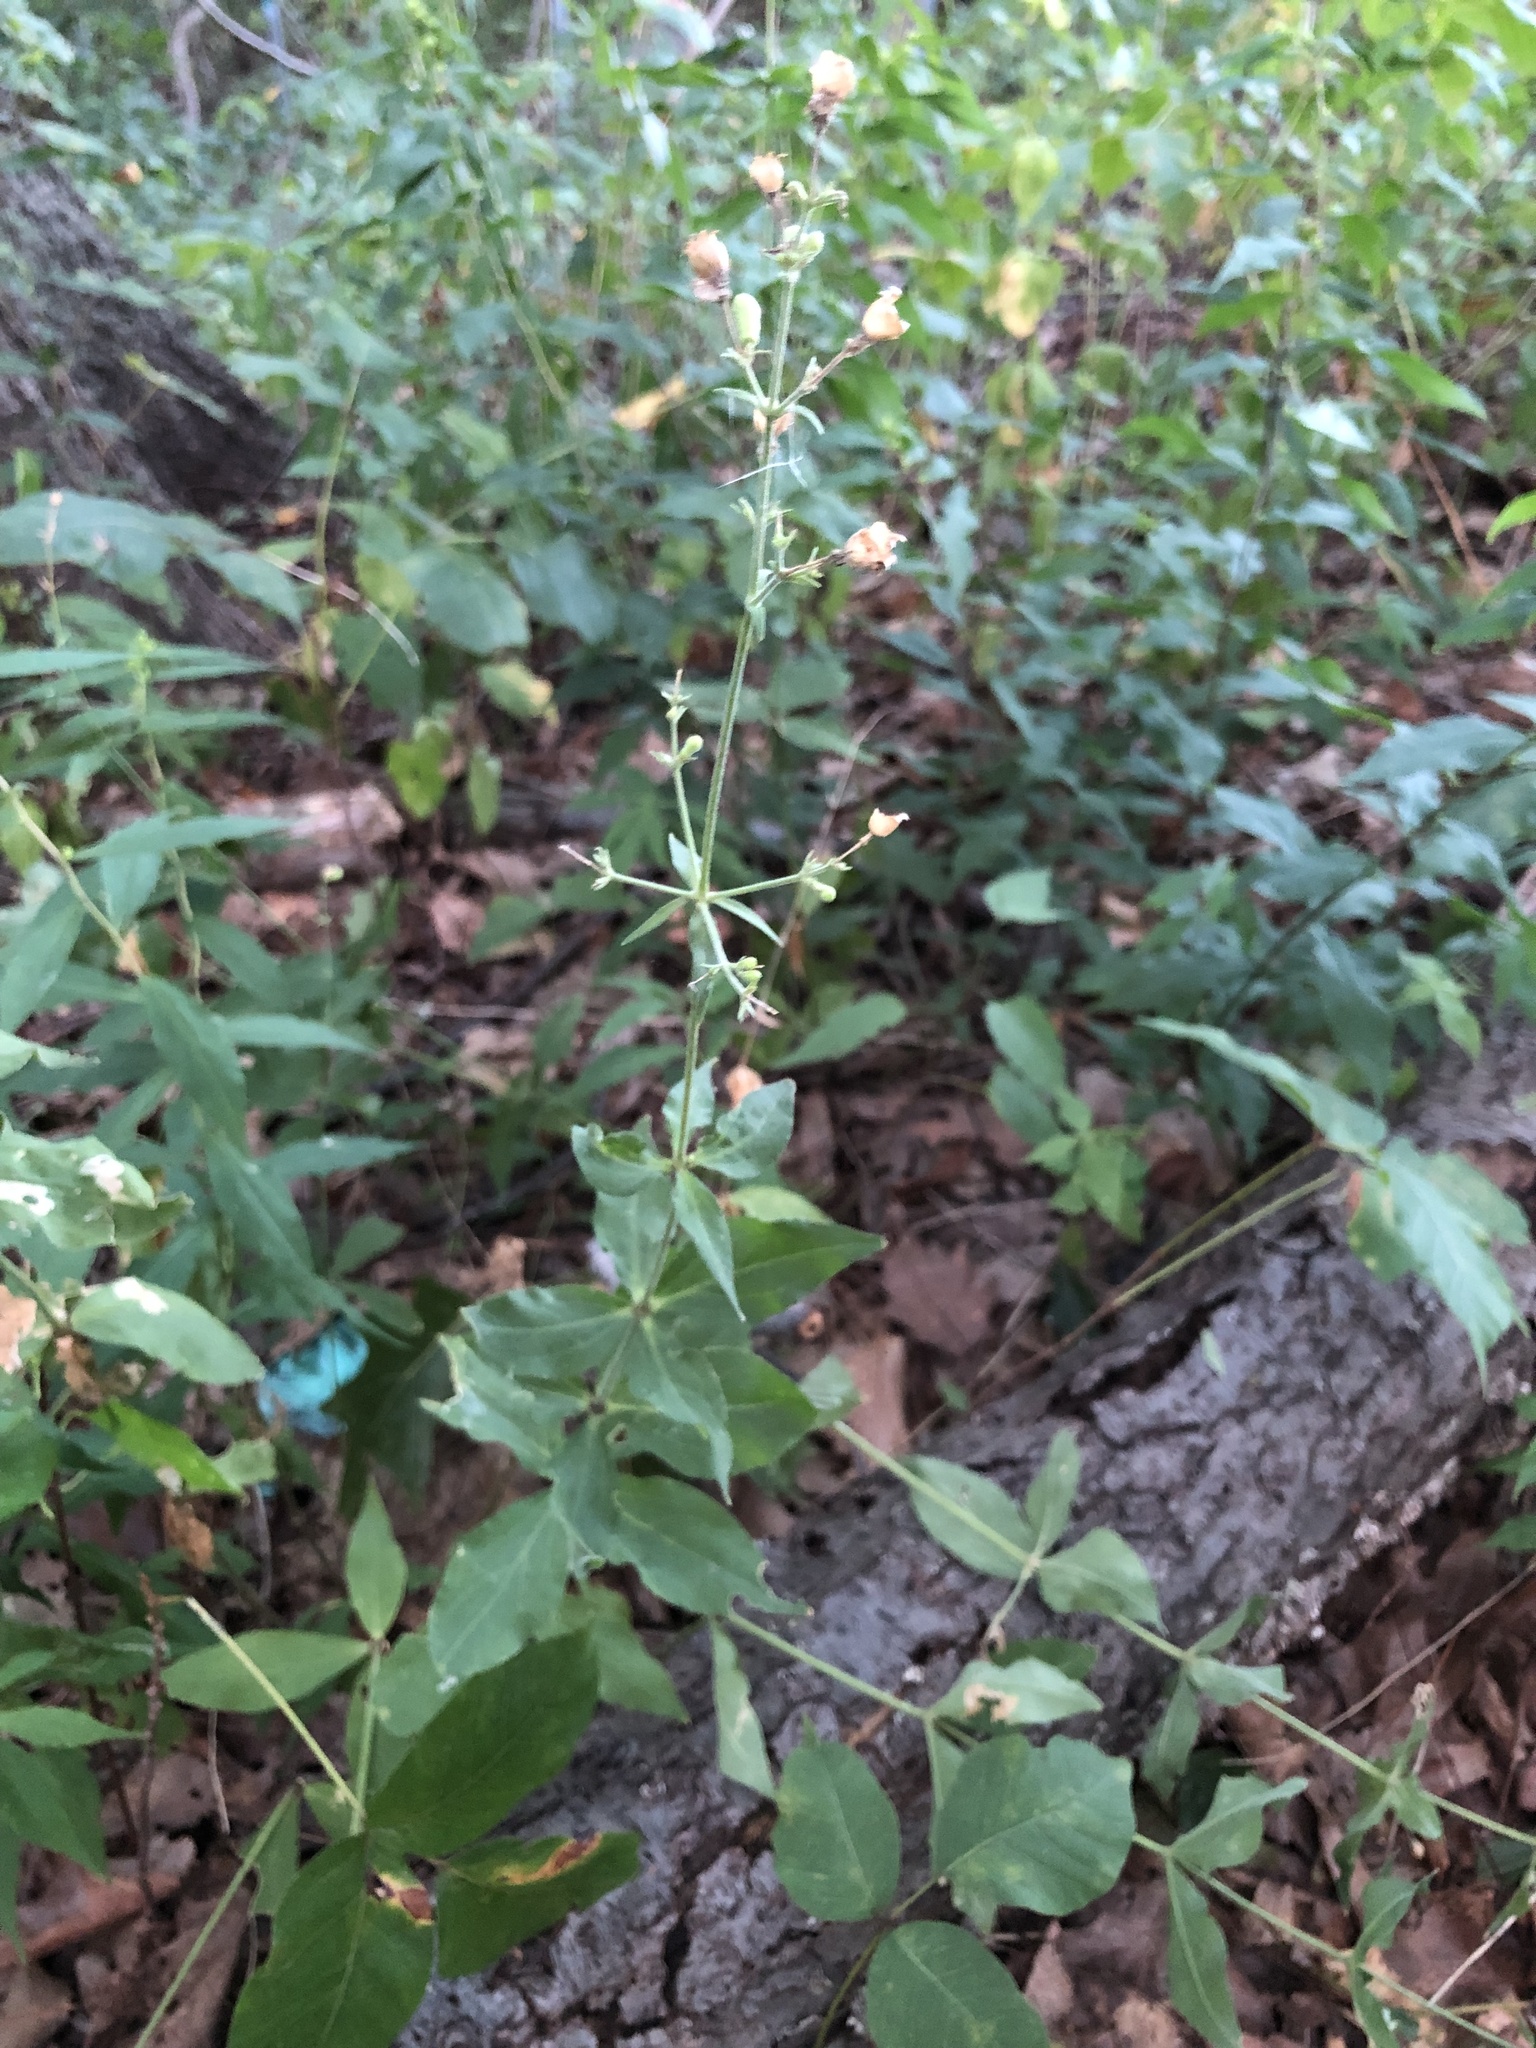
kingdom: Plantae
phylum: Tracheophyta
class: Magnoliopsida
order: Caryophyllales
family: Caryophyllaceae
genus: Silene
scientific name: Silene stellata
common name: Starry campion
